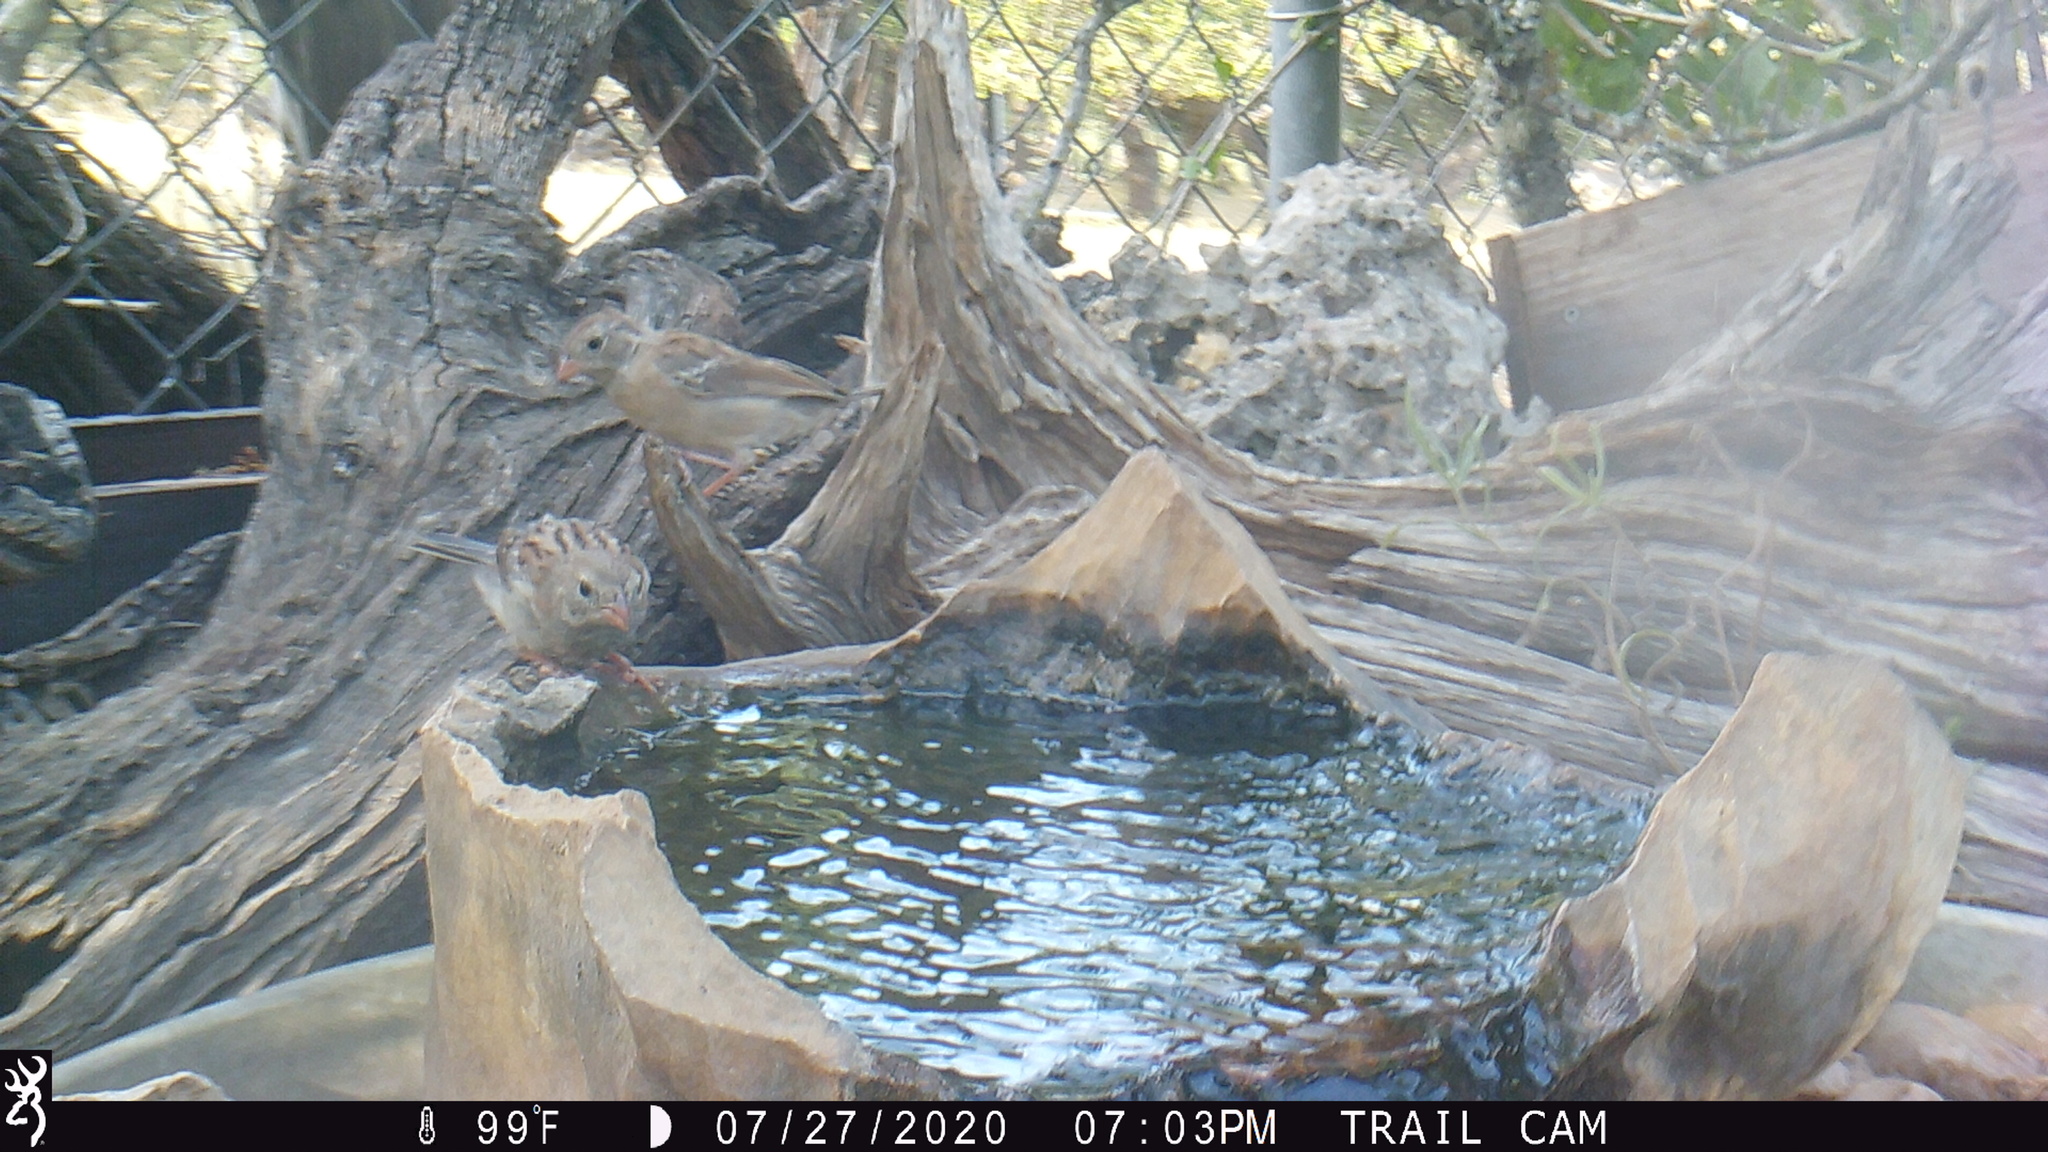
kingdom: Animalia
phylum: Chordata
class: Aves
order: Passeriformes
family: Passerellidae
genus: Spizella
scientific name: Spizella pusilla
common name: Field sparrow
